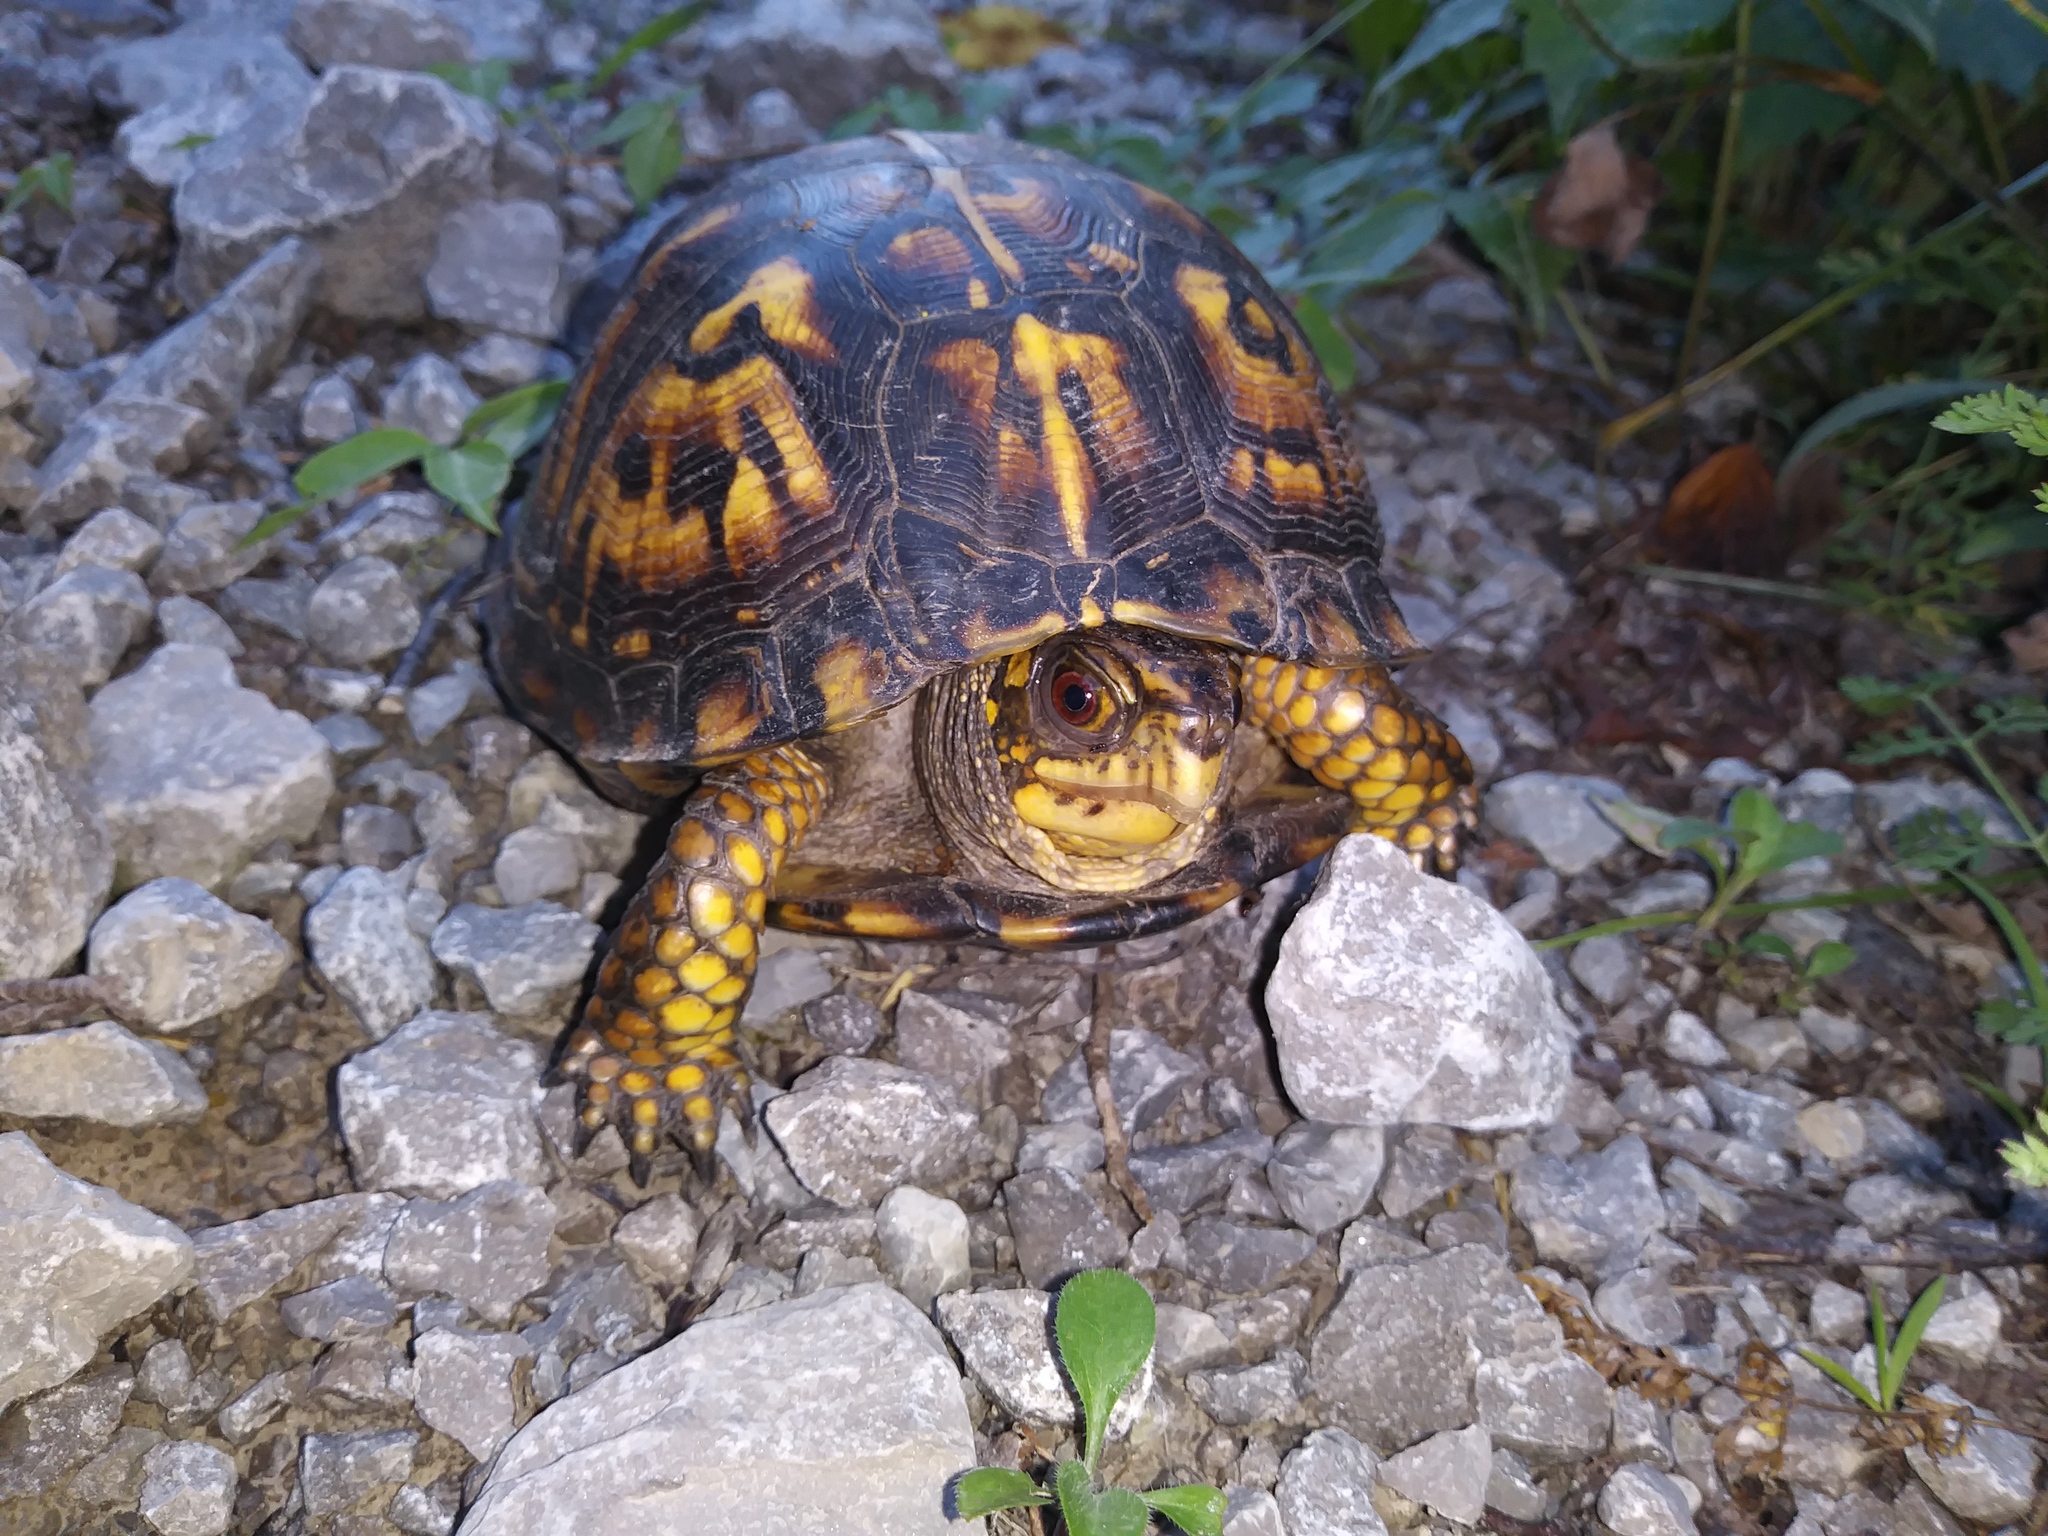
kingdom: Animalia
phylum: Chordata
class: Testudines
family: Emydidae
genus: Terrapene
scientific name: Terrapene carolina
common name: Common box turtle
